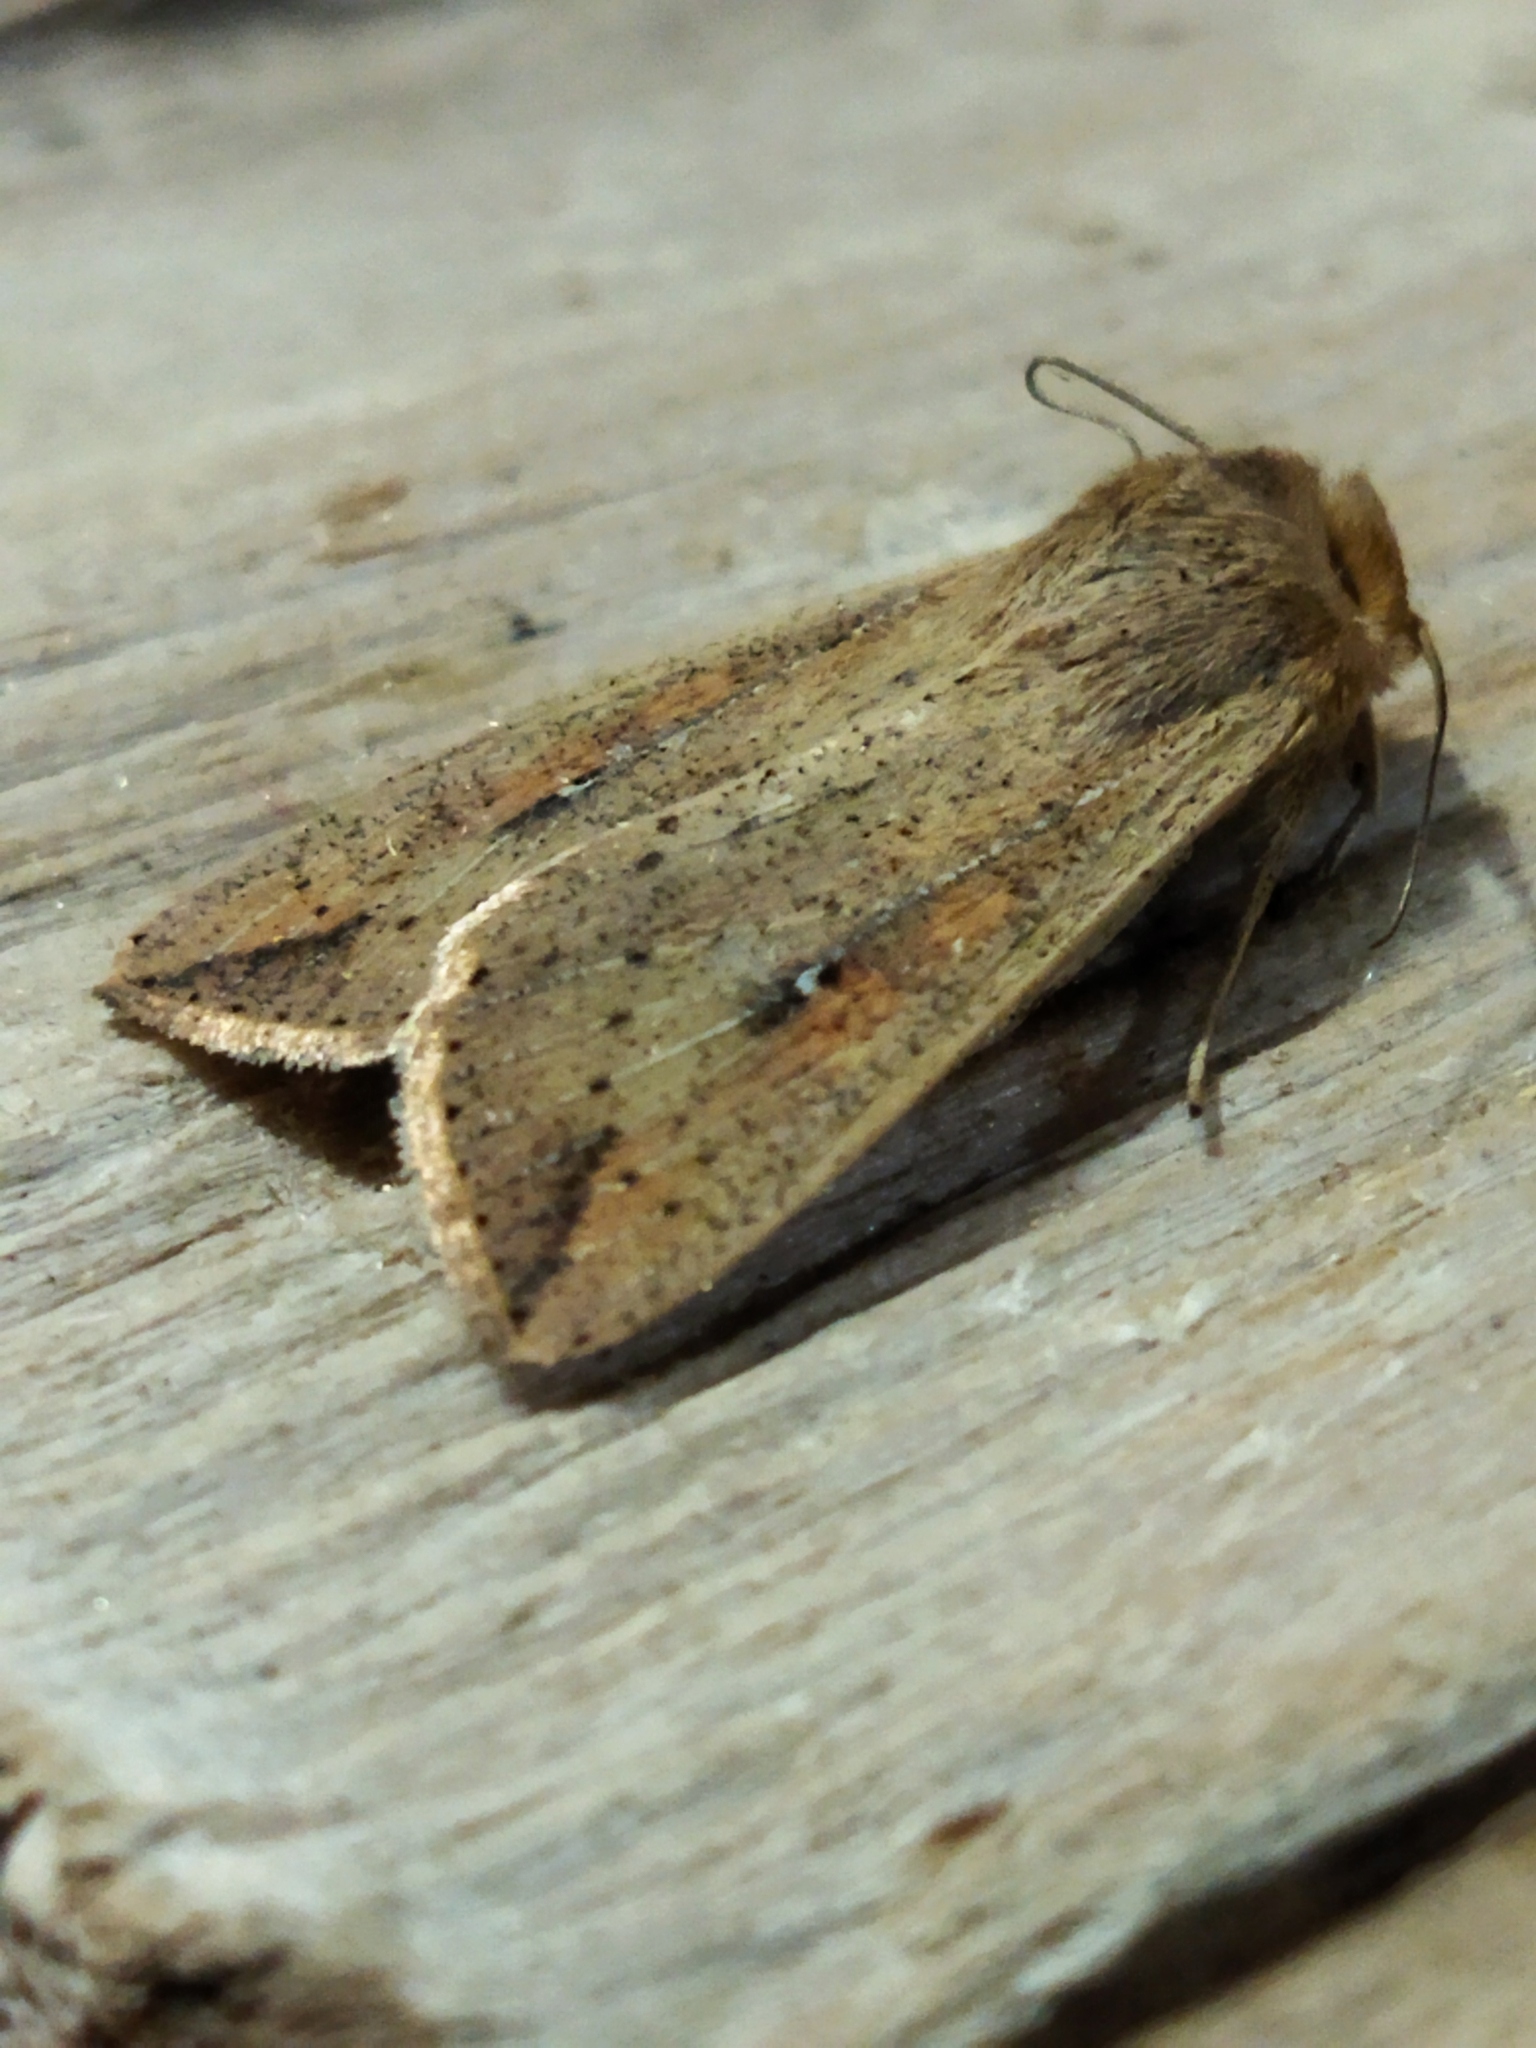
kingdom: Animalia
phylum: Arthropoda
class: Insecta
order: Lepidoptera
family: Noctuidae
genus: Mythimna
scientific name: Mythimna unipuncta
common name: White-speck
